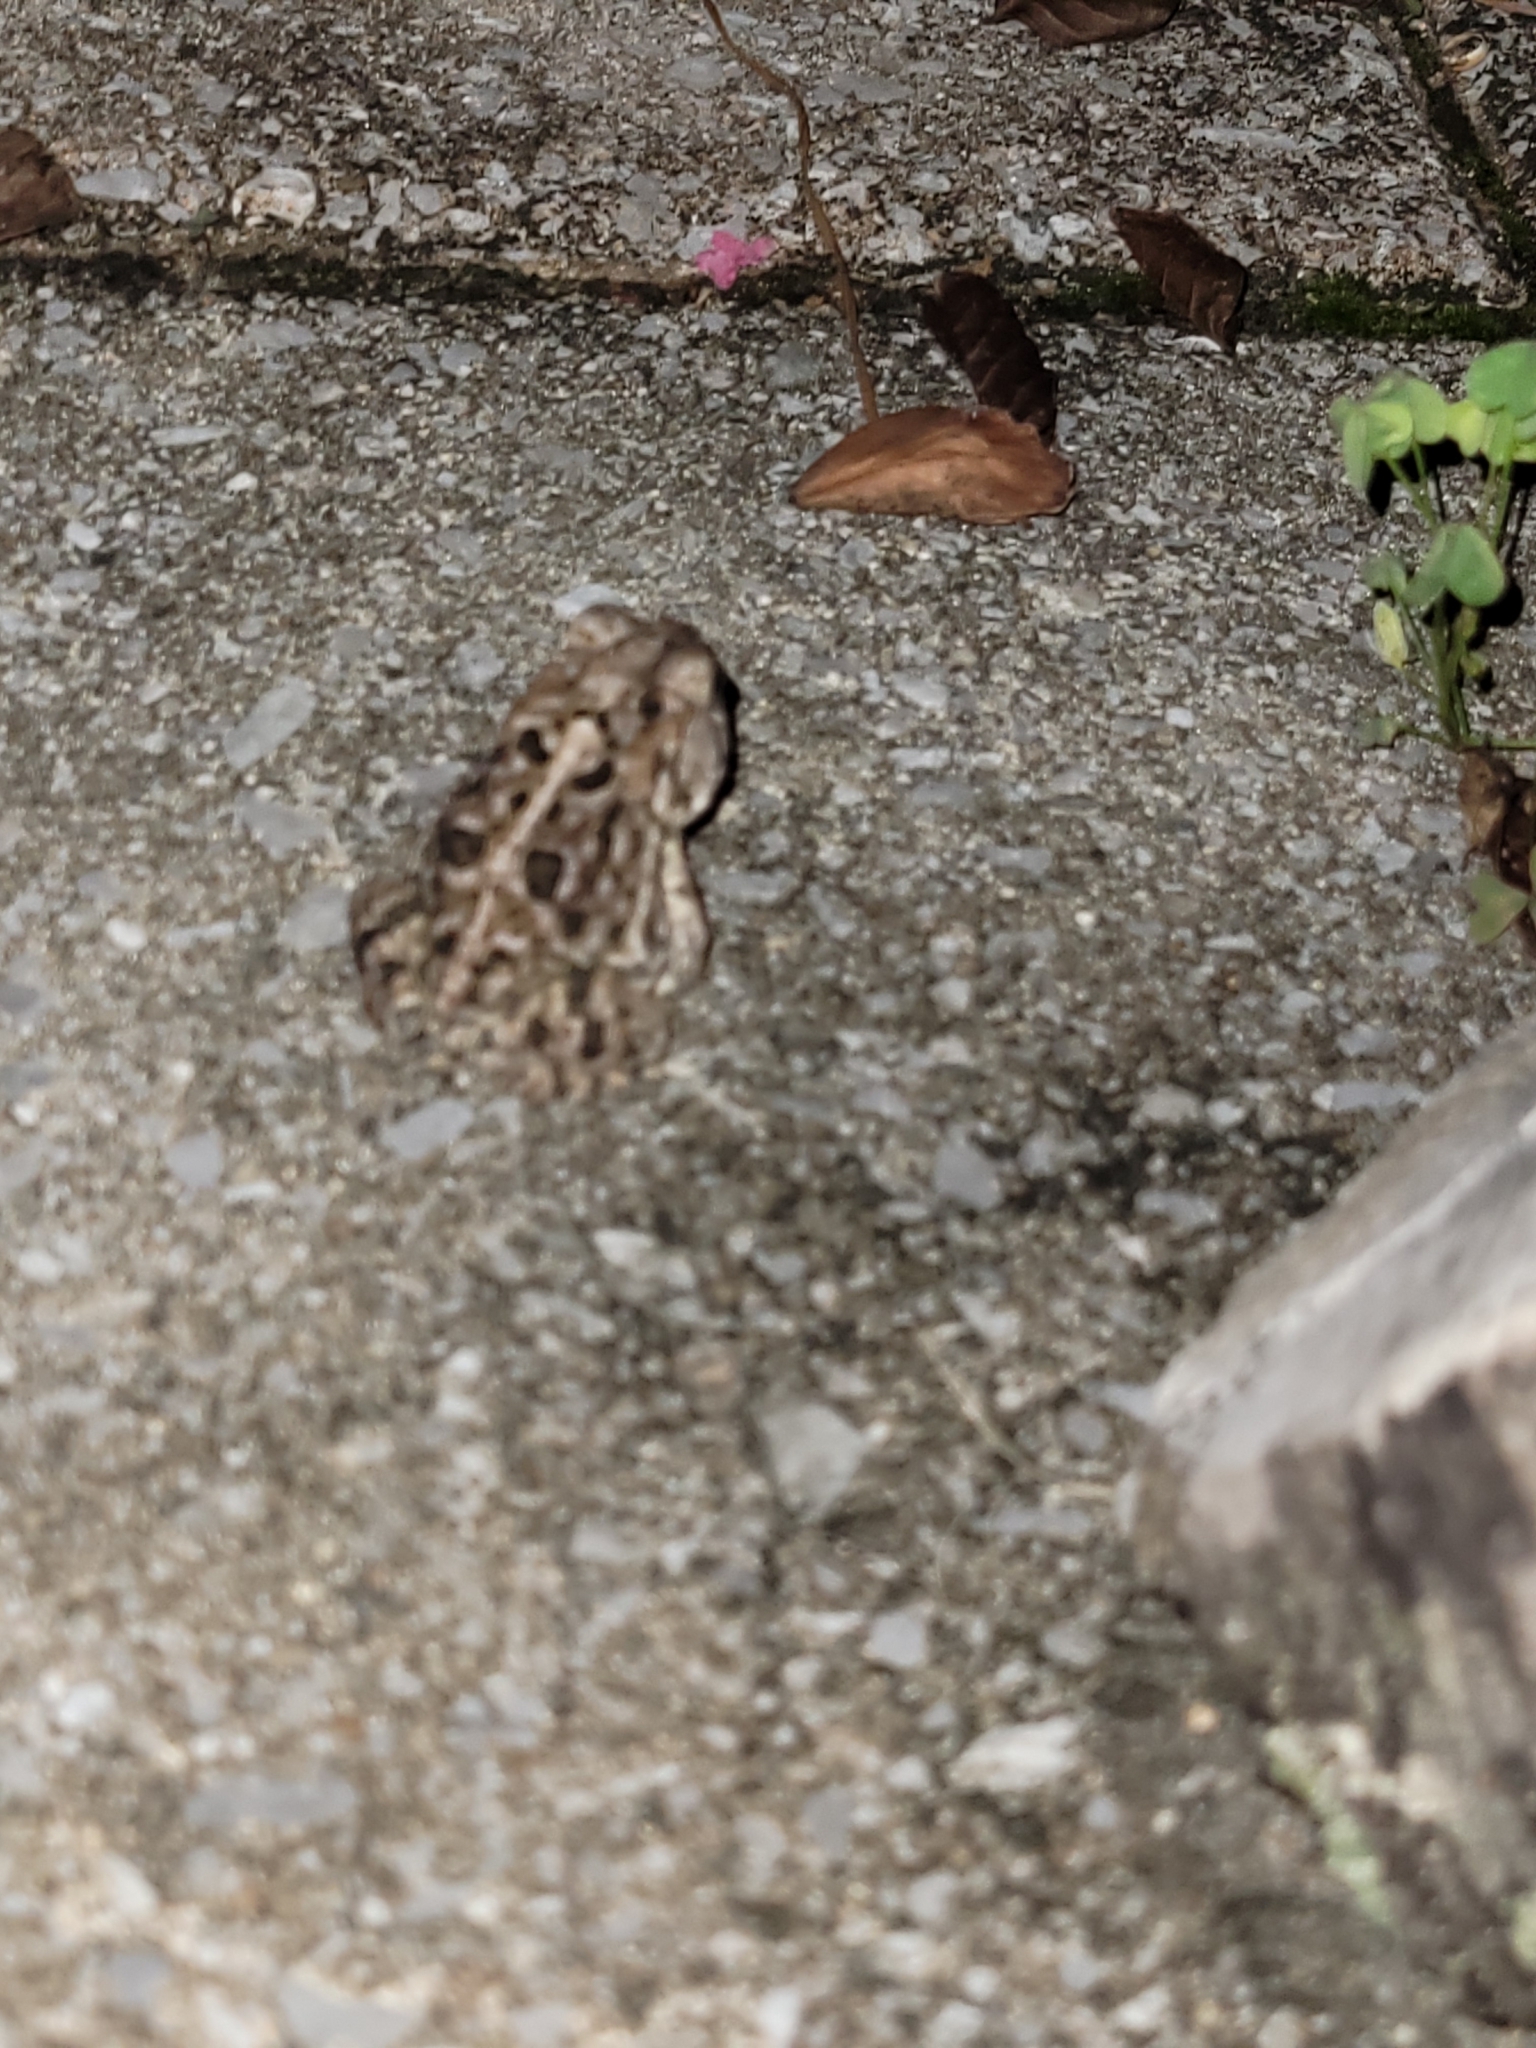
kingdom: Animalia
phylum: Chordata
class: Amphibia
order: Anura
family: Bufonidae
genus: Anaxyrus
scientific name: Anaxyrus terrestris
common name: Southern toad
